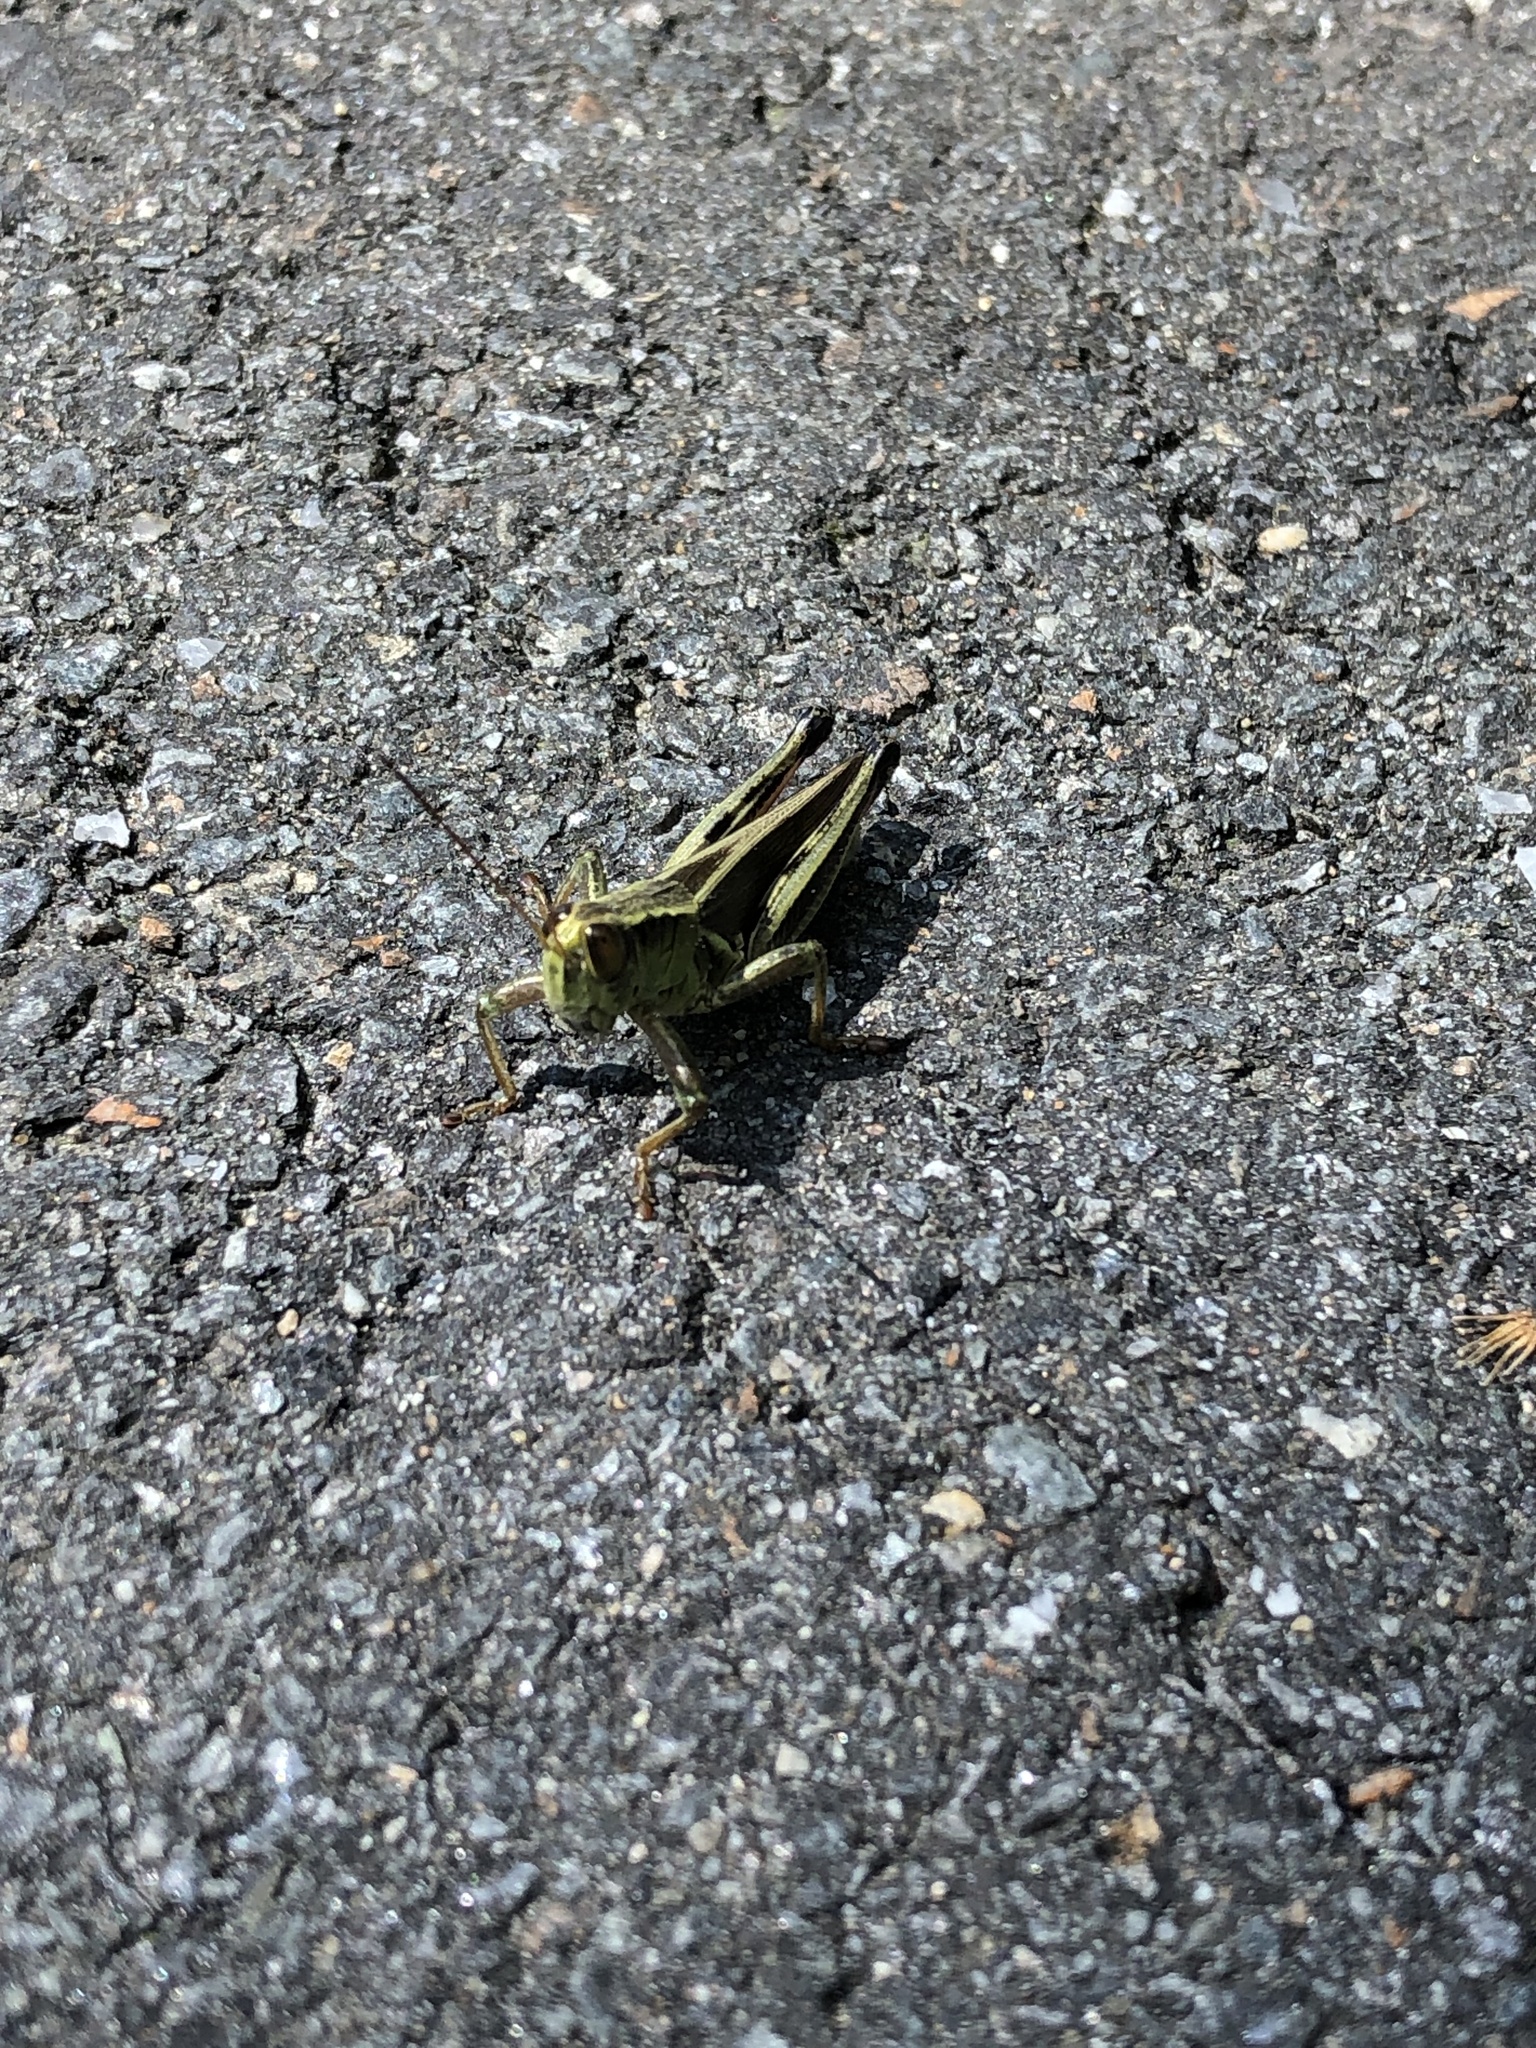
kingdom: Animalia
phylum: Arthropoda
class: Insecta
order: Orthoptera
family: Acrididae
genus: Melanoplus
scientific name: Melanoplus bivittatus
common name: Two-striped grasshopper
